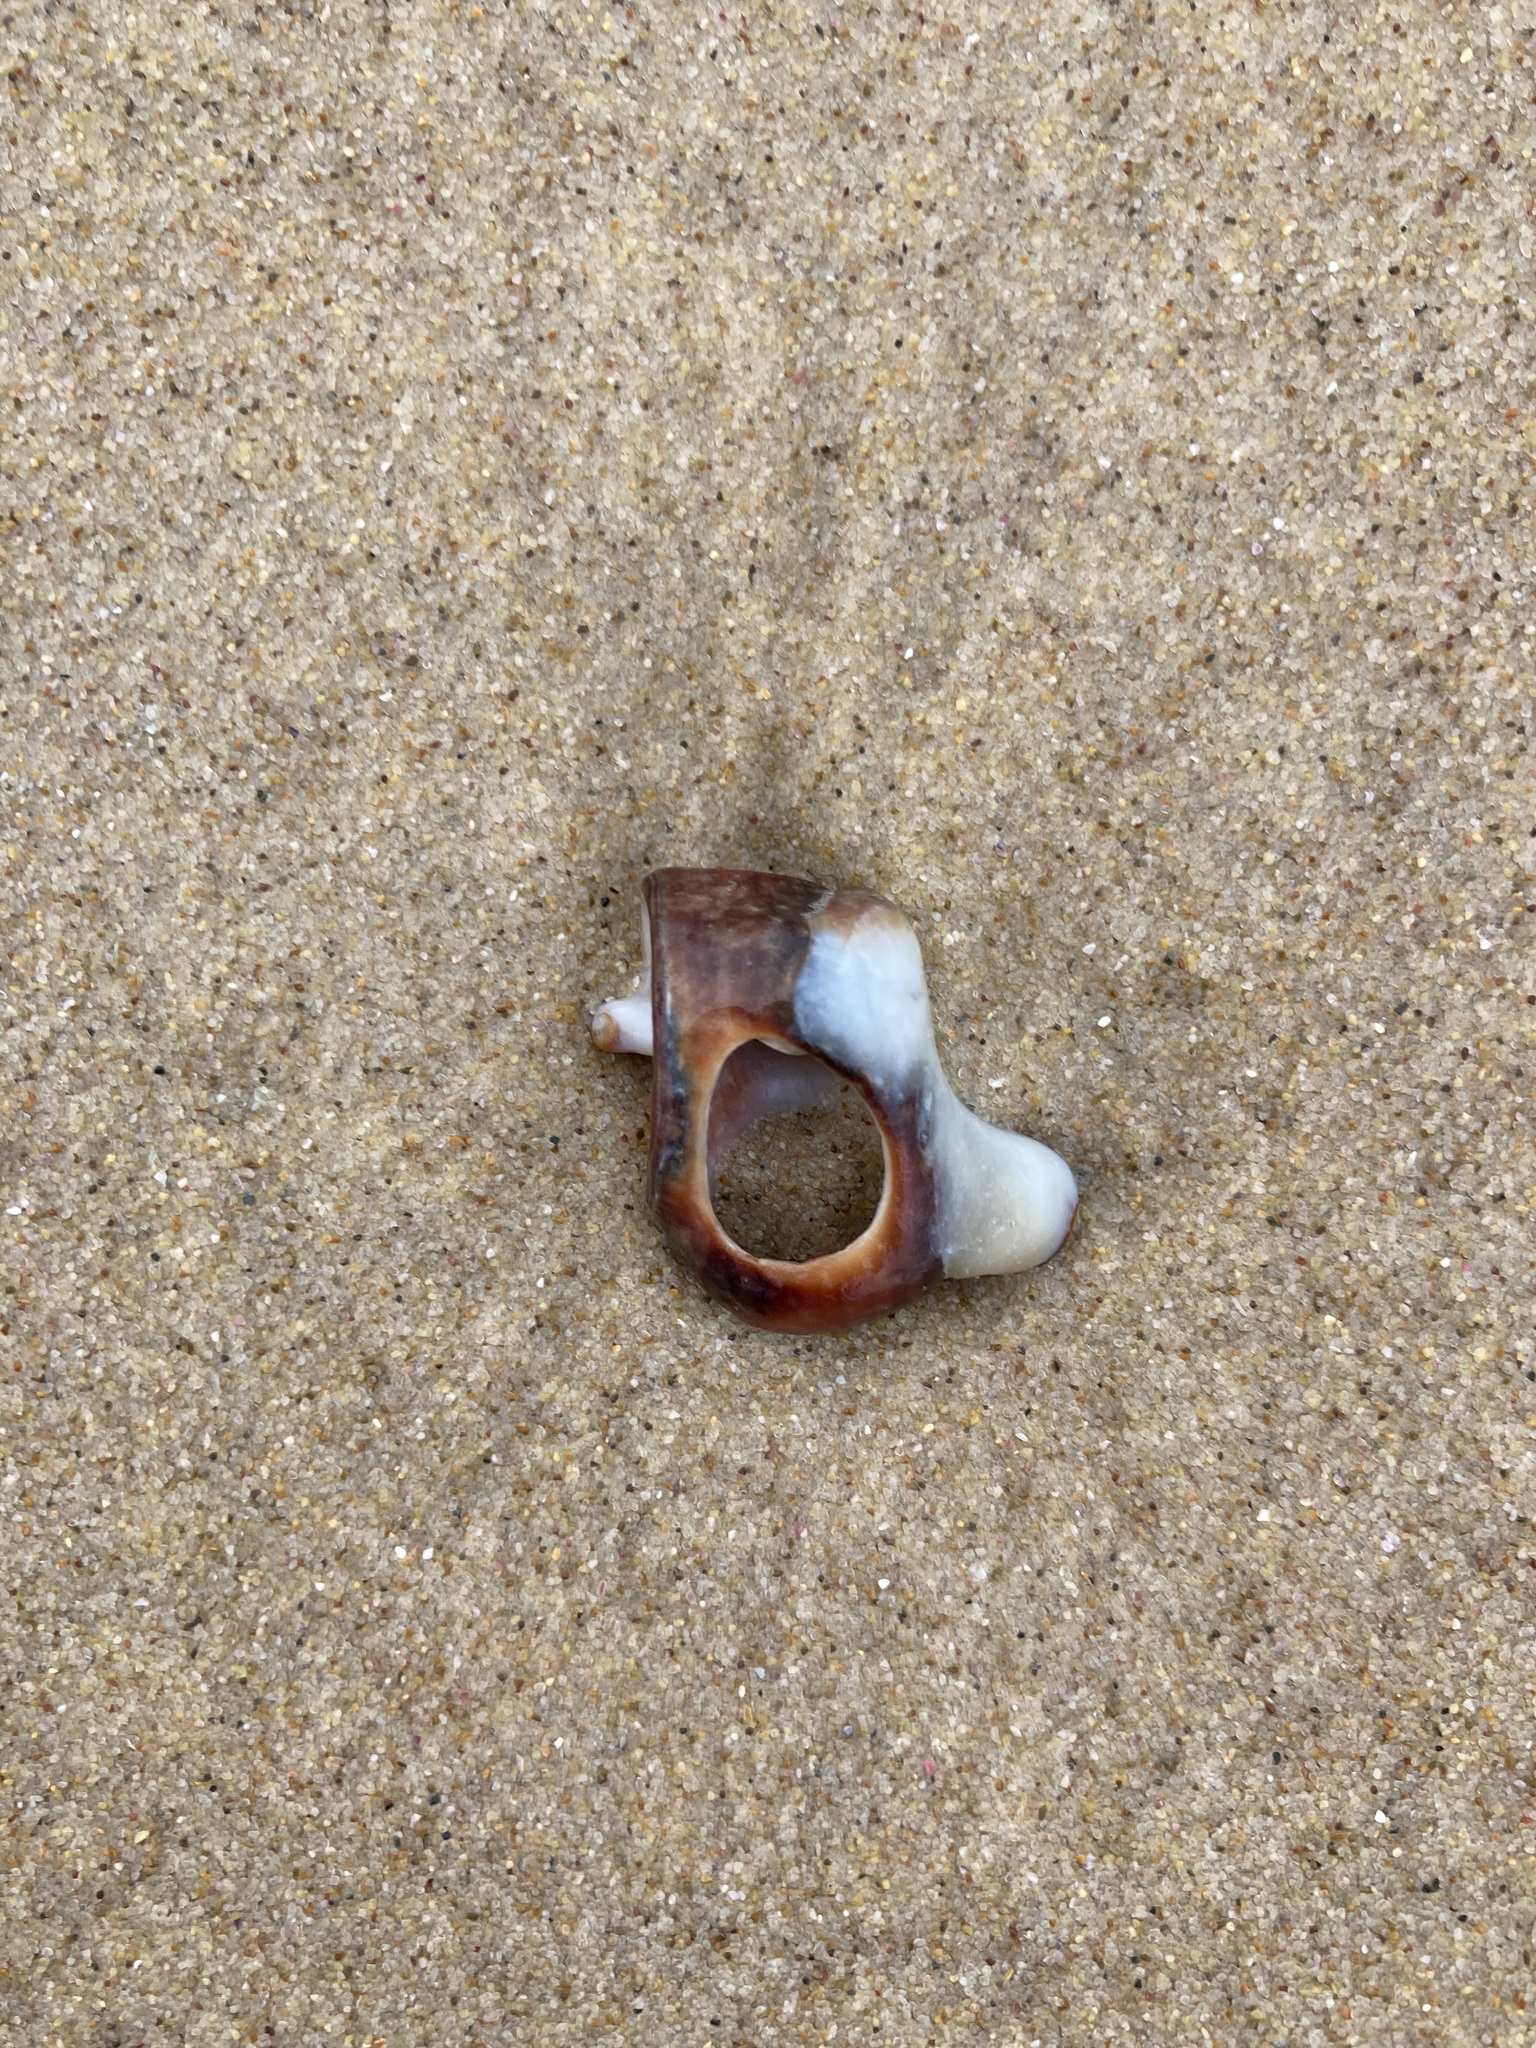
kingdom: Animalia
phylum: Mollusca
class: Gastropoda
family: Batillariidae
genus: Pyrazus
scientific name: Pyrazus ebeninus
